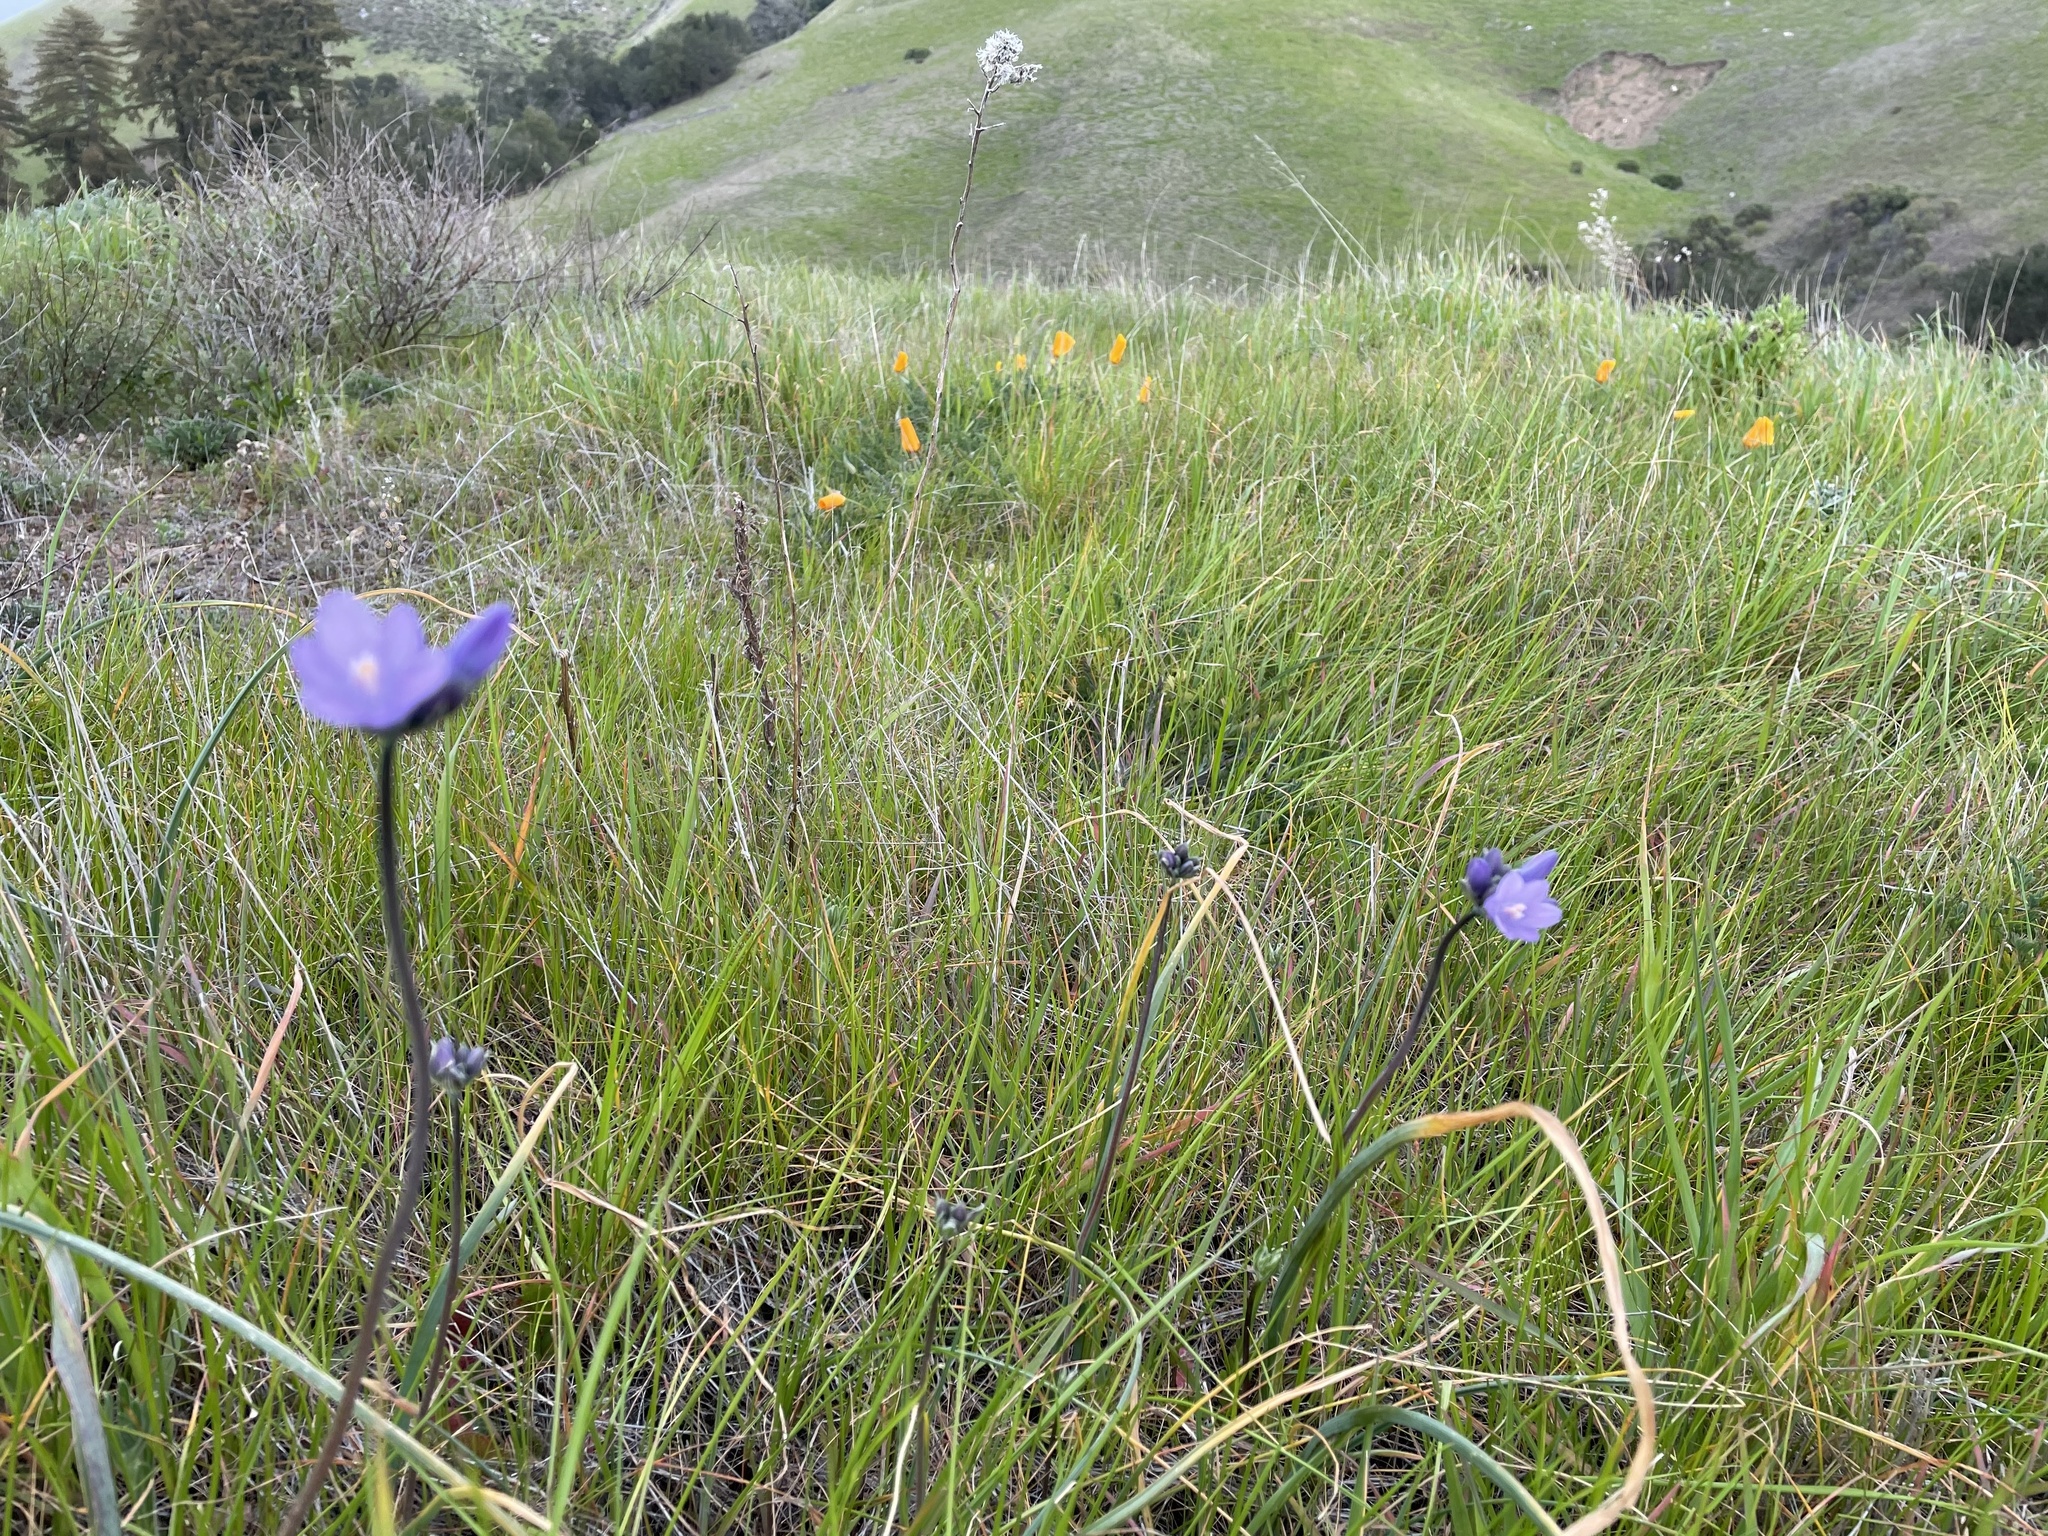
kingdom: Plantae
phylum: Tracheophyta
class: Liliopsida
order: Asparagales
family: Asparagaceae
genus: Dipterostemon
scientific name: Dipterostemon capitatus
